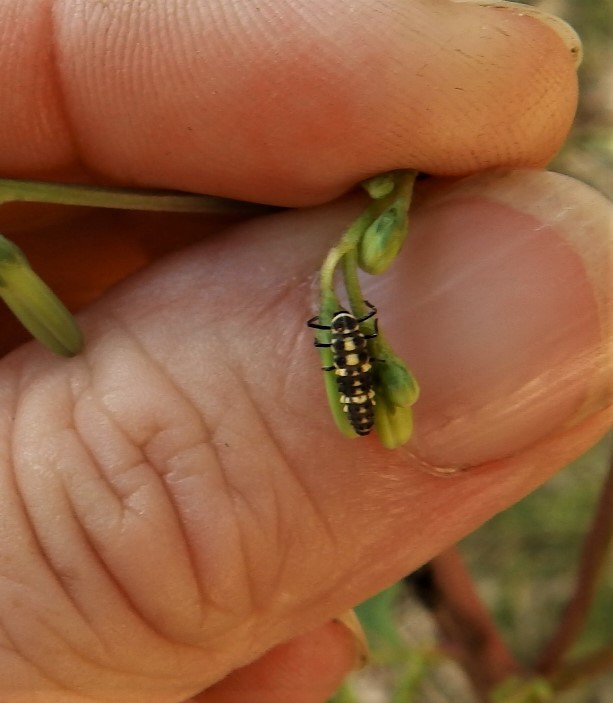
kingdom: Animalia
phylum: Arthropoda
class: Insecta
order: Coleoptera
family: Coccinellidae
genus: Cycloneda
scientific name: Cycloneda munda
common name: Polished lady beetle
